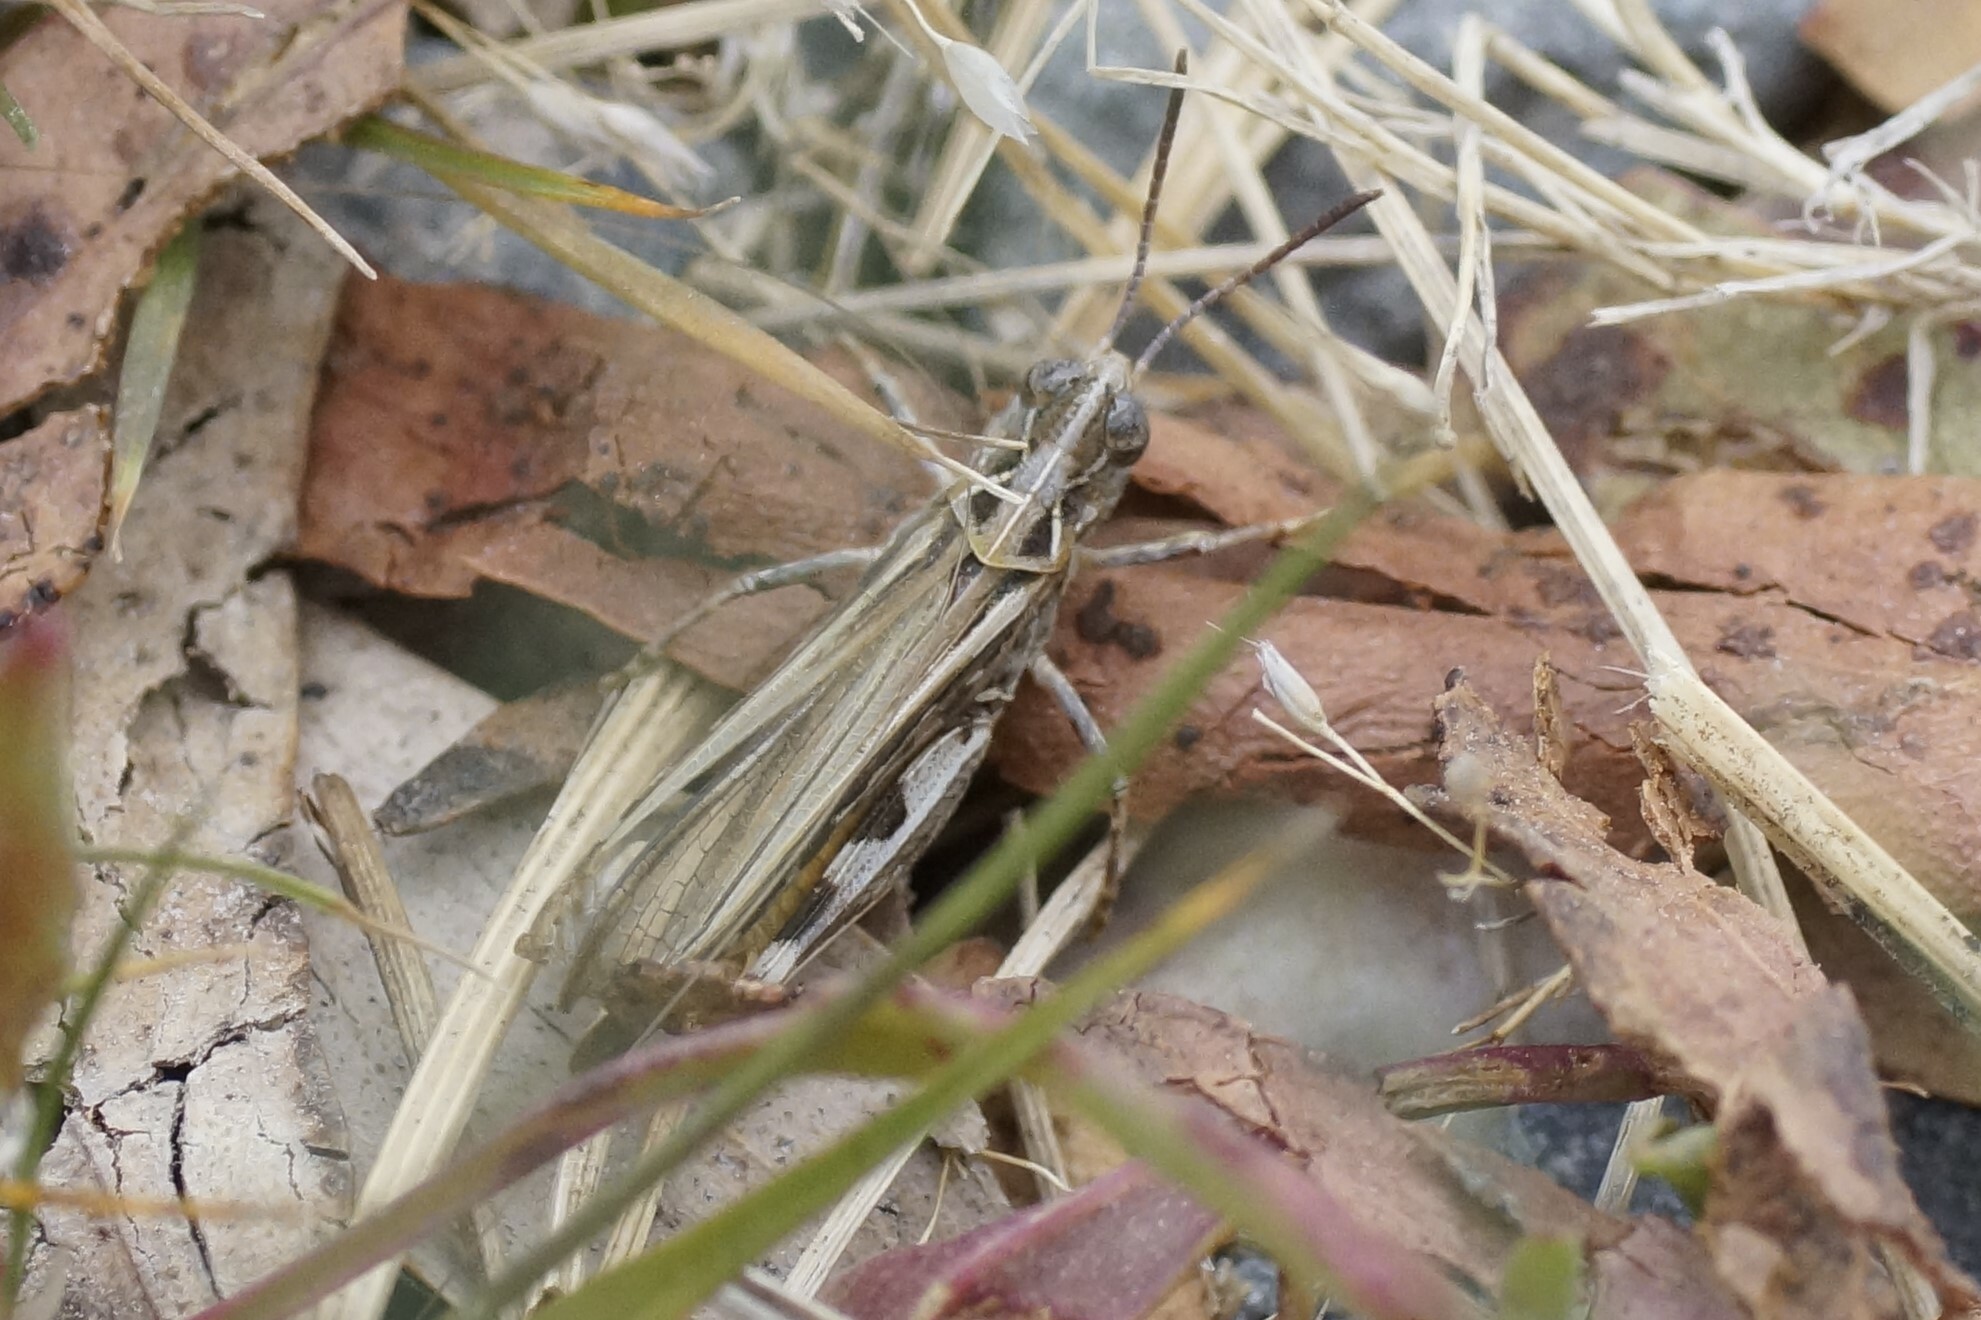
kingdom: Animalia
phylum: Arthropoda
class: Insecta
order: Orthoptera
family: Acrididae
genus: Austroicetes
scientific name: Austroicetes vulgaris
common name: Southeastern austroicetes
